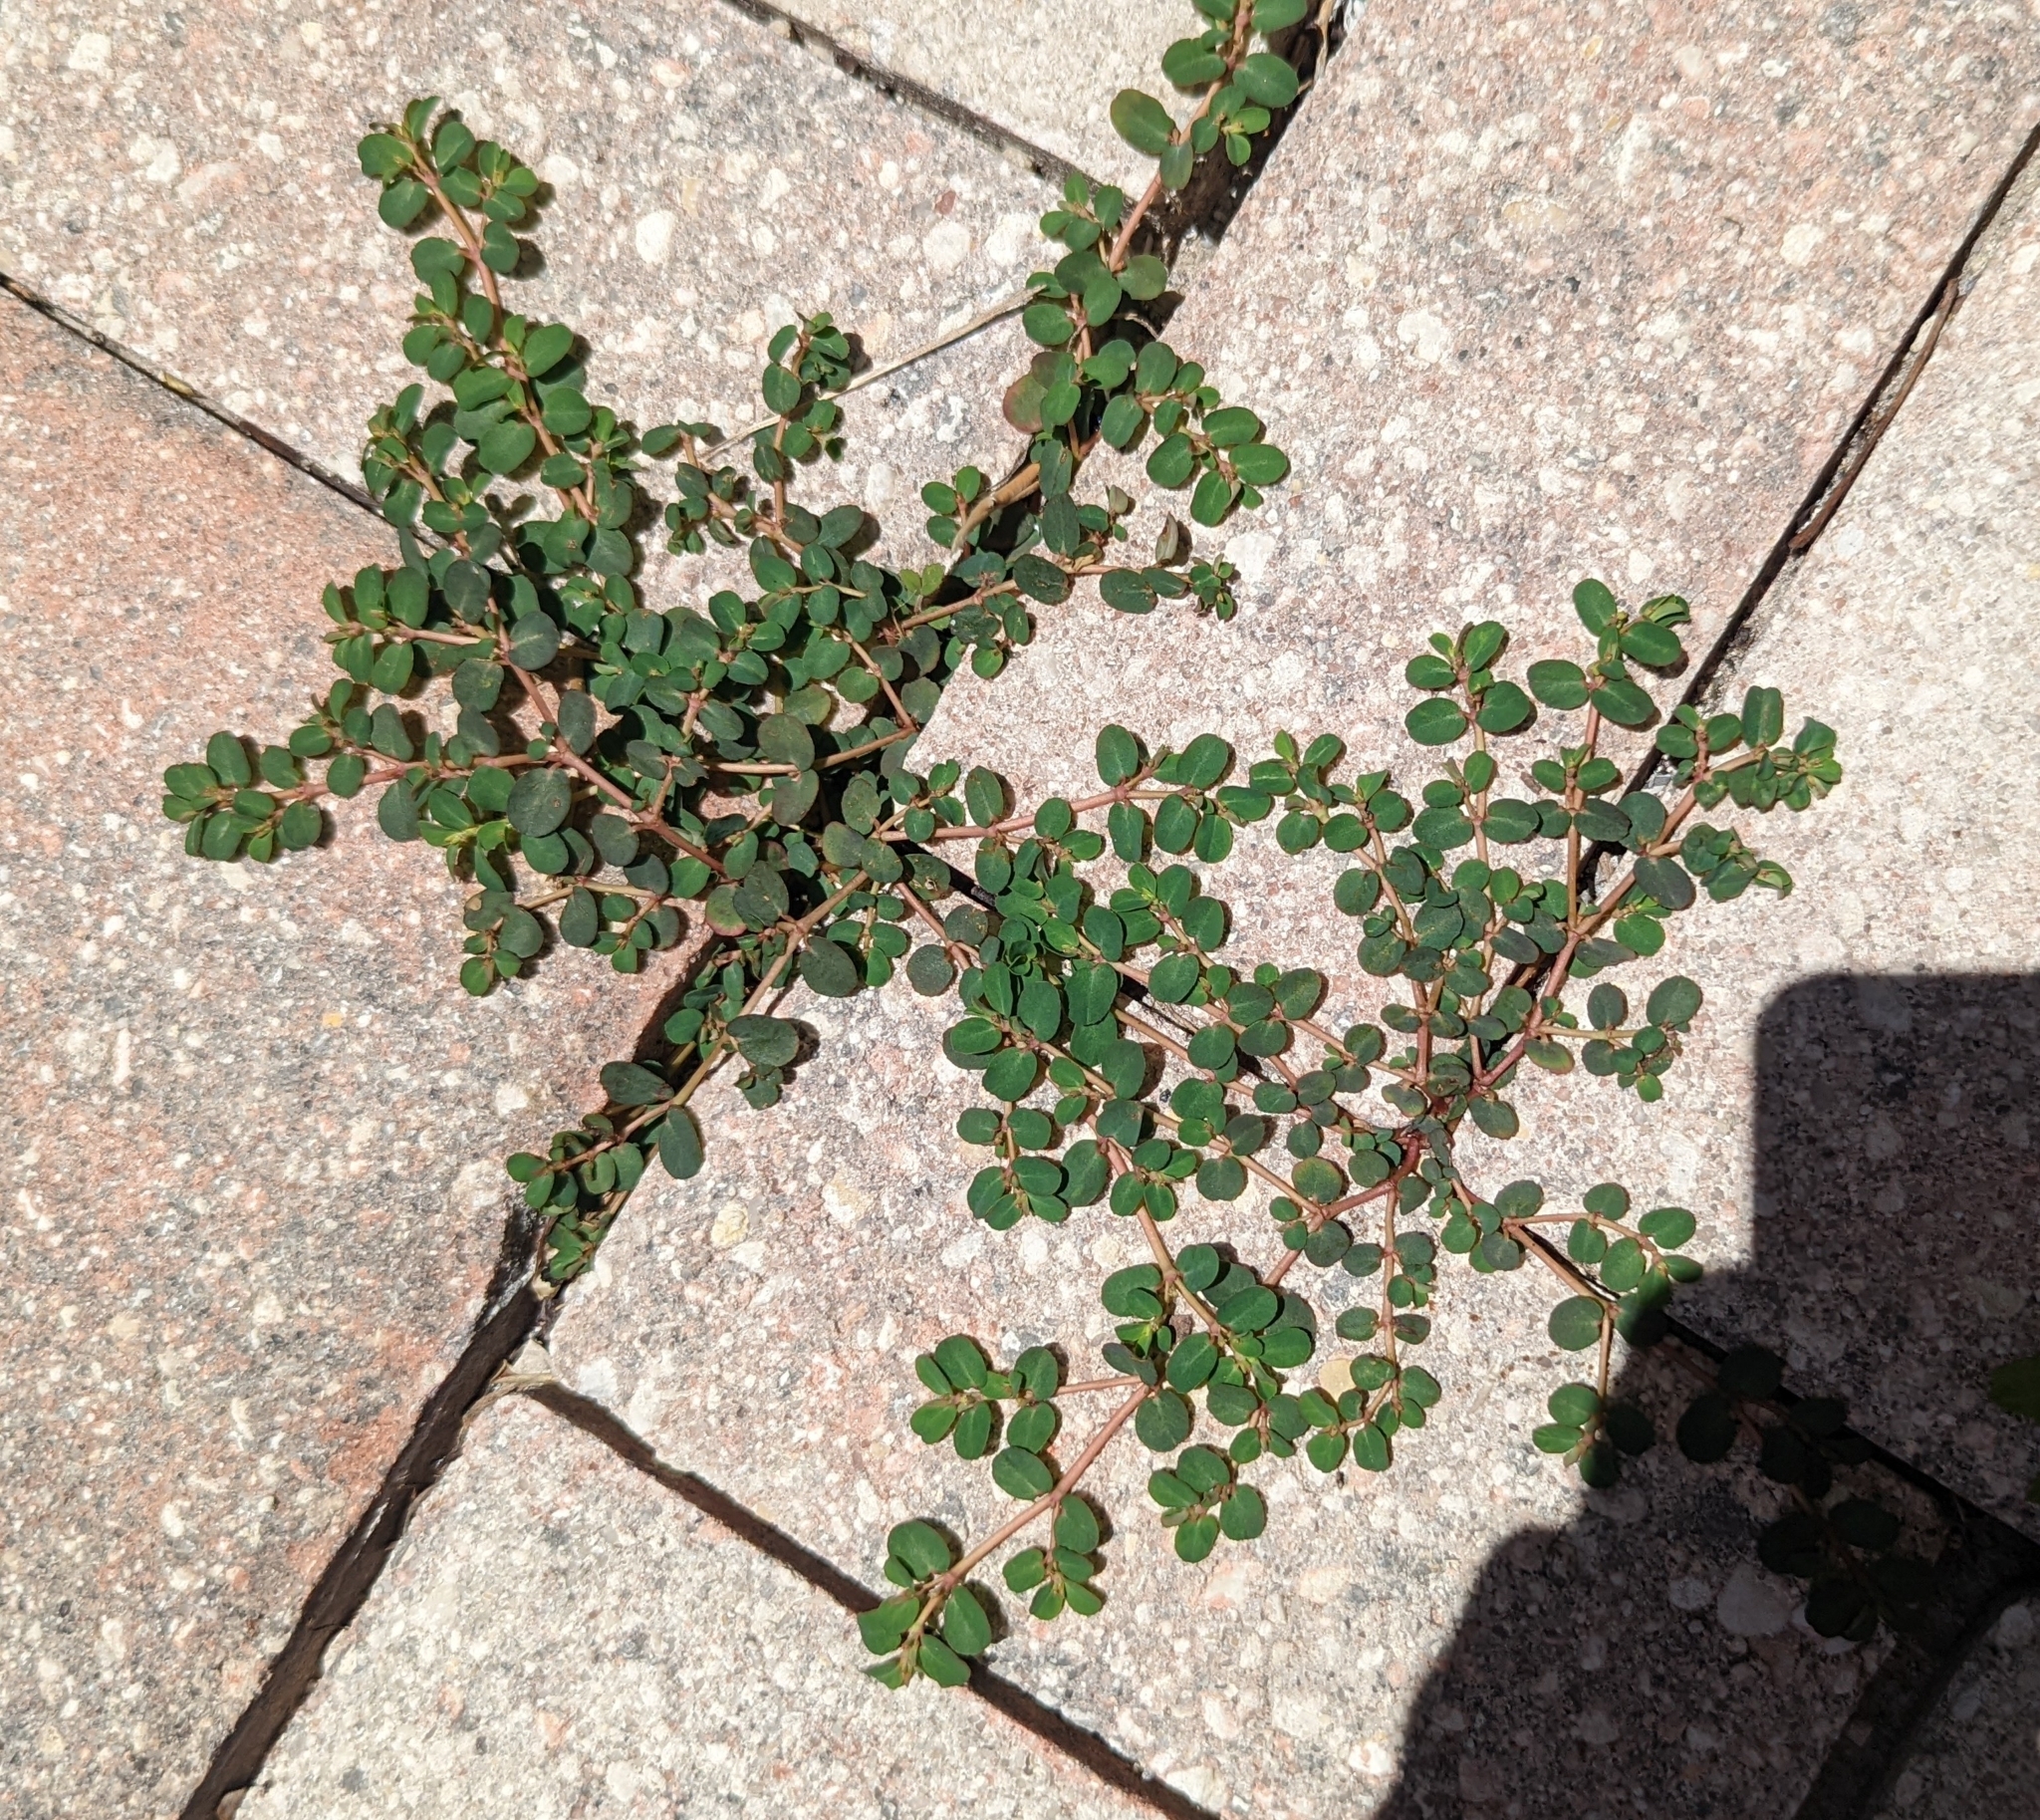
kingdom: Plantae
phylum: Tracheophyta
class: Magnoliopsida
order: Malpighiales
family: Euphorbiaceae
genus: Euphorbia
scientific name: Euphorbia blodgettii
